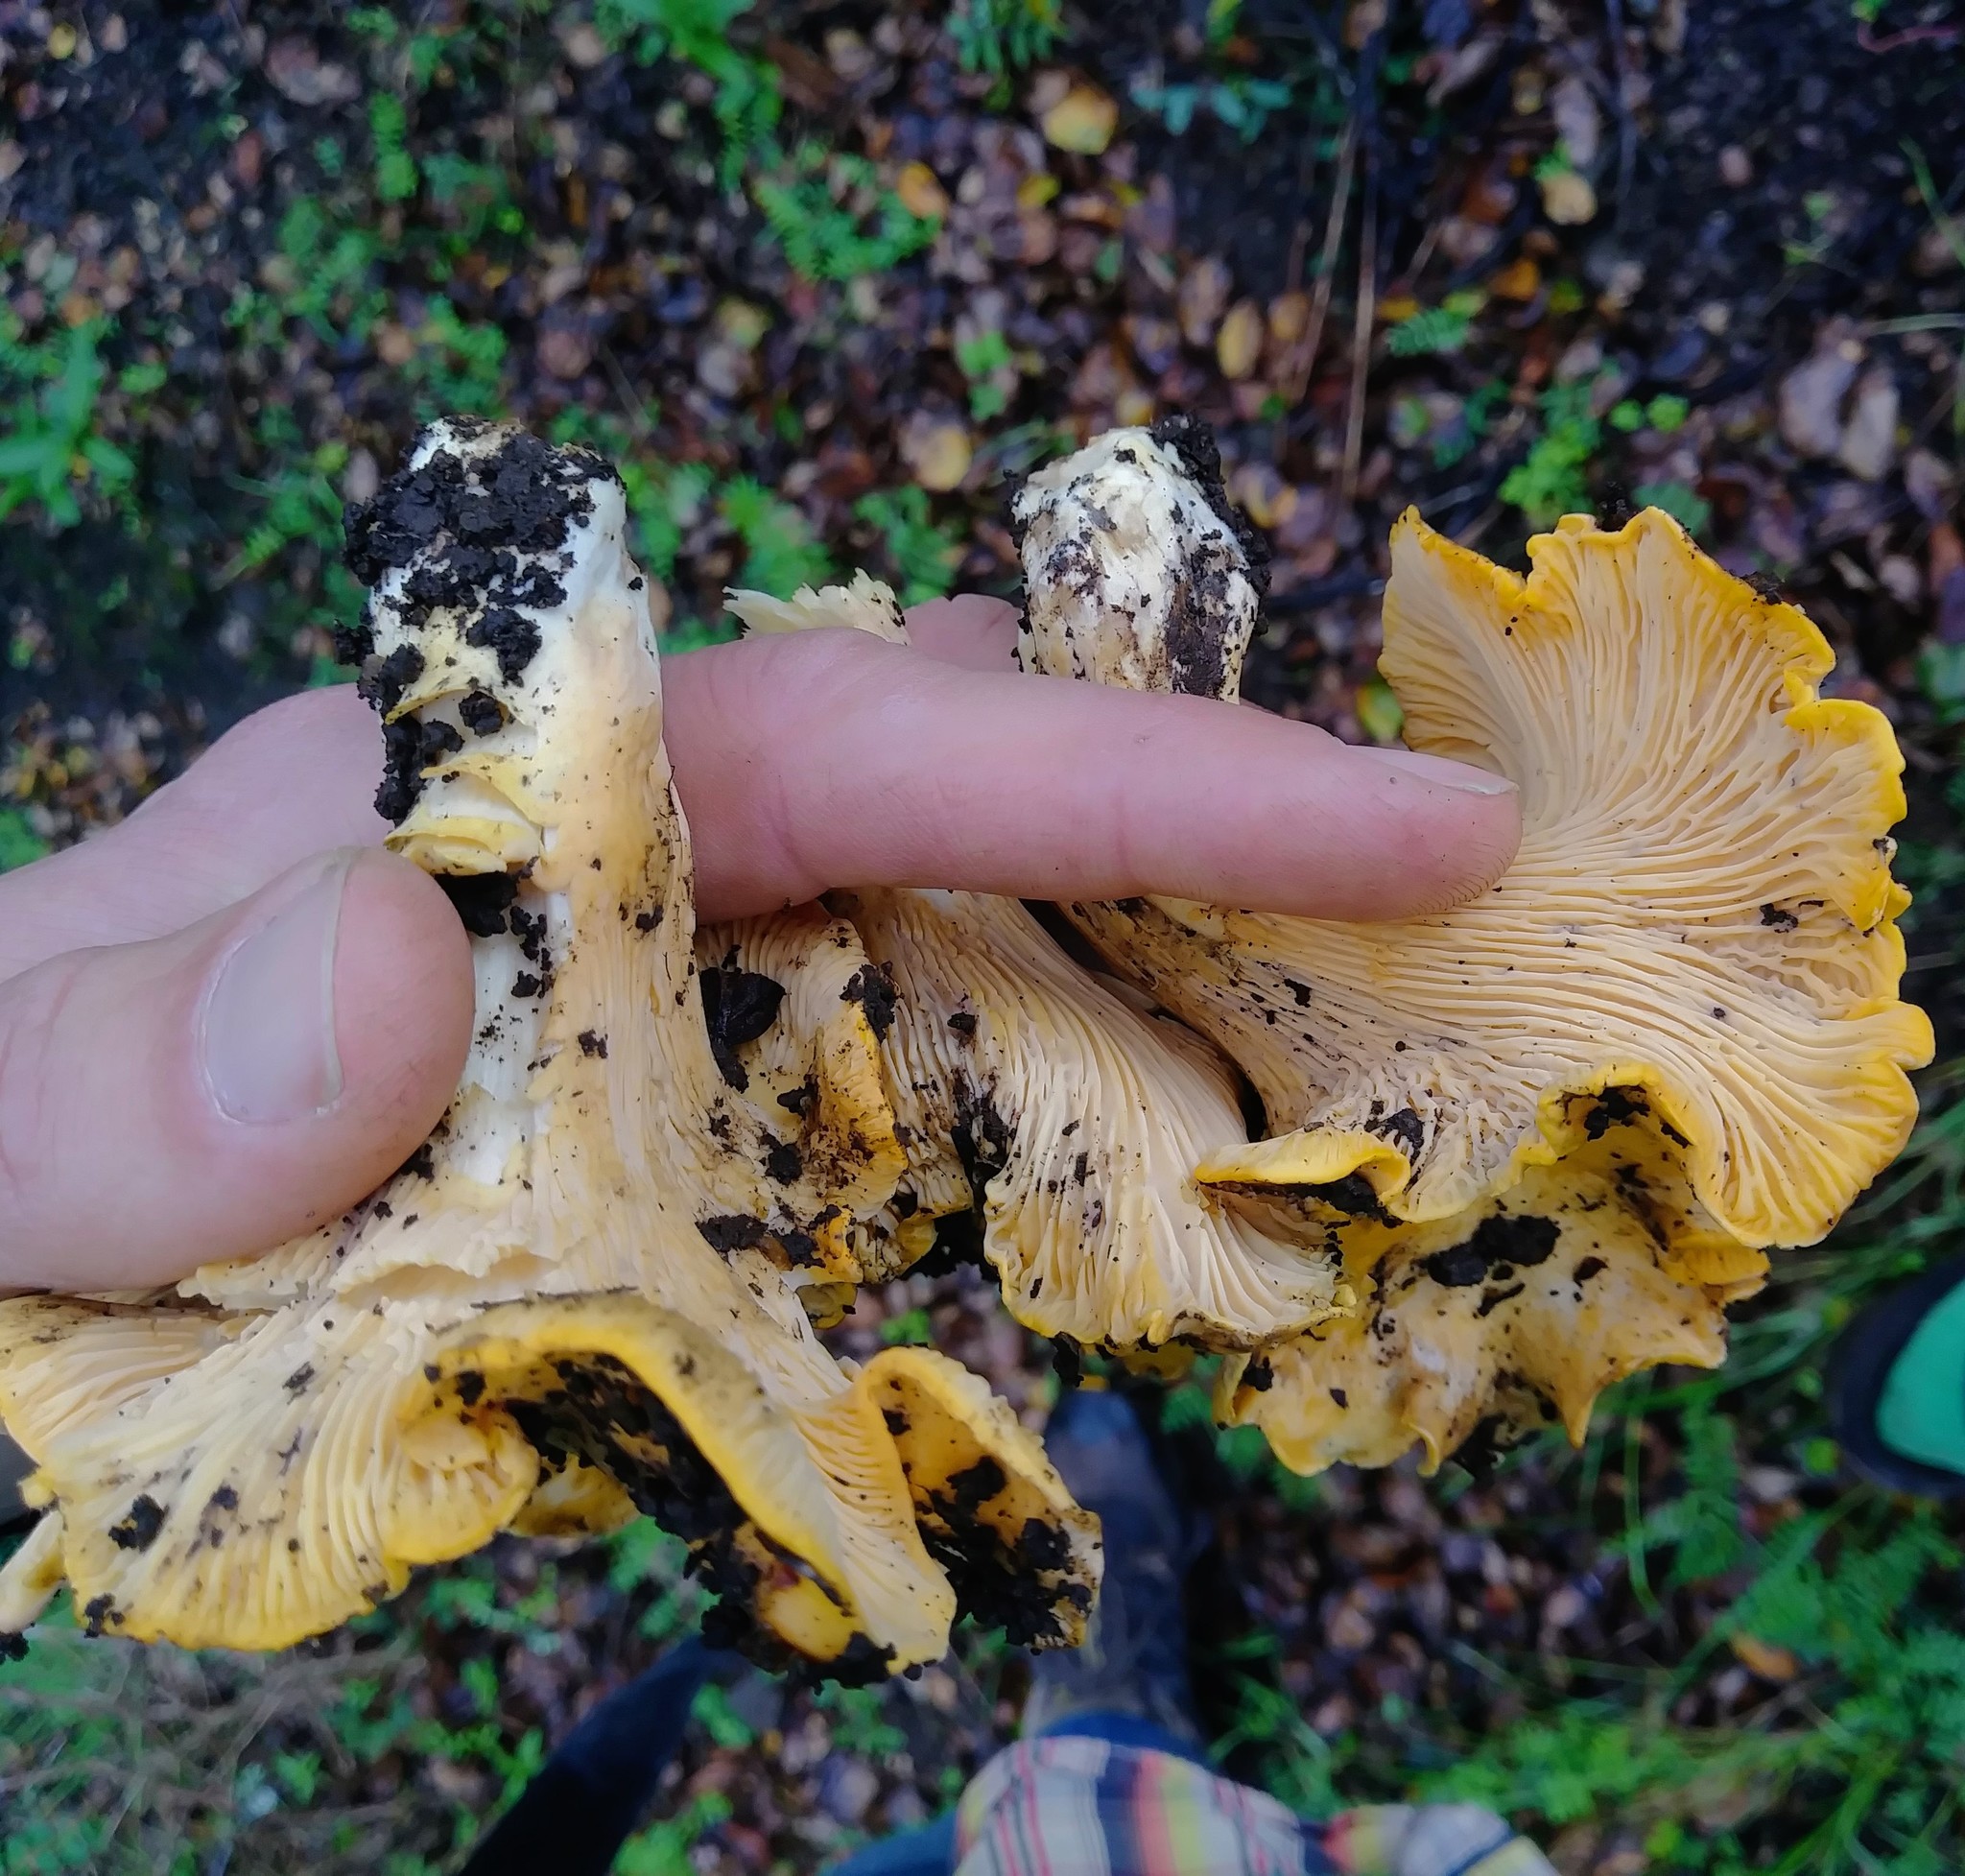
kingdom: Fungi
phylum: Basidiomycota
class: Agaricomycetes
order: Cantharellales
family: Hydnaceae
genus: Cantharellus
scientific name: Cantharellus californicus
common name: California golden chanterelle
